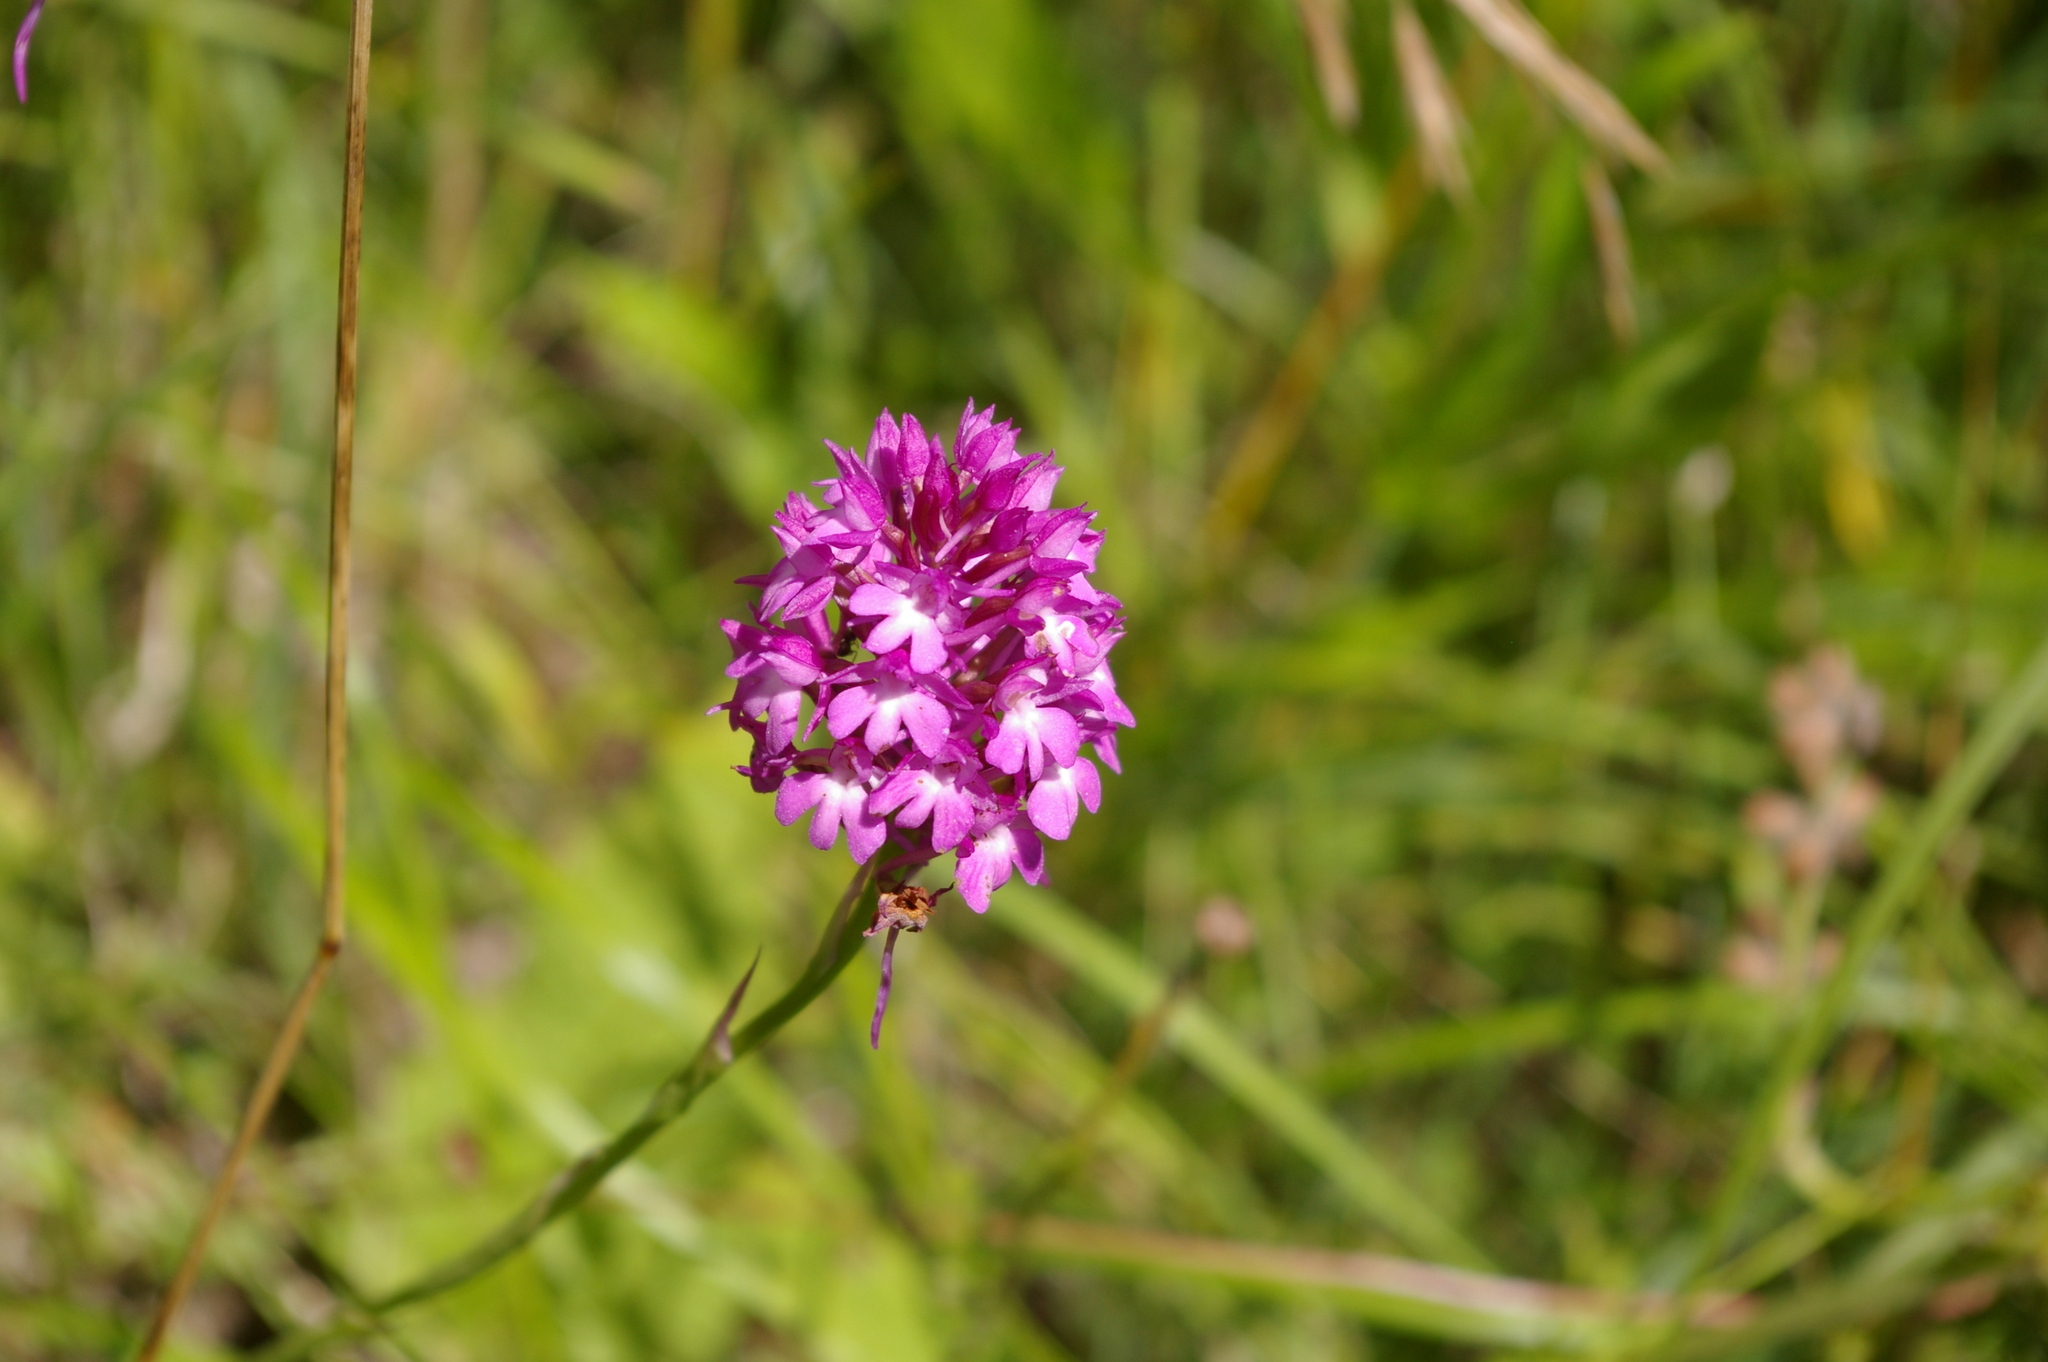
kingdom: Plantae
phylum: Tracheophyta
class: Liliopsida
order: Asparagales
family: Orchidaceae
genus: Anacamptis
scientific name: Anacamptis pyramidalis
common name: Pyramidal orchid
